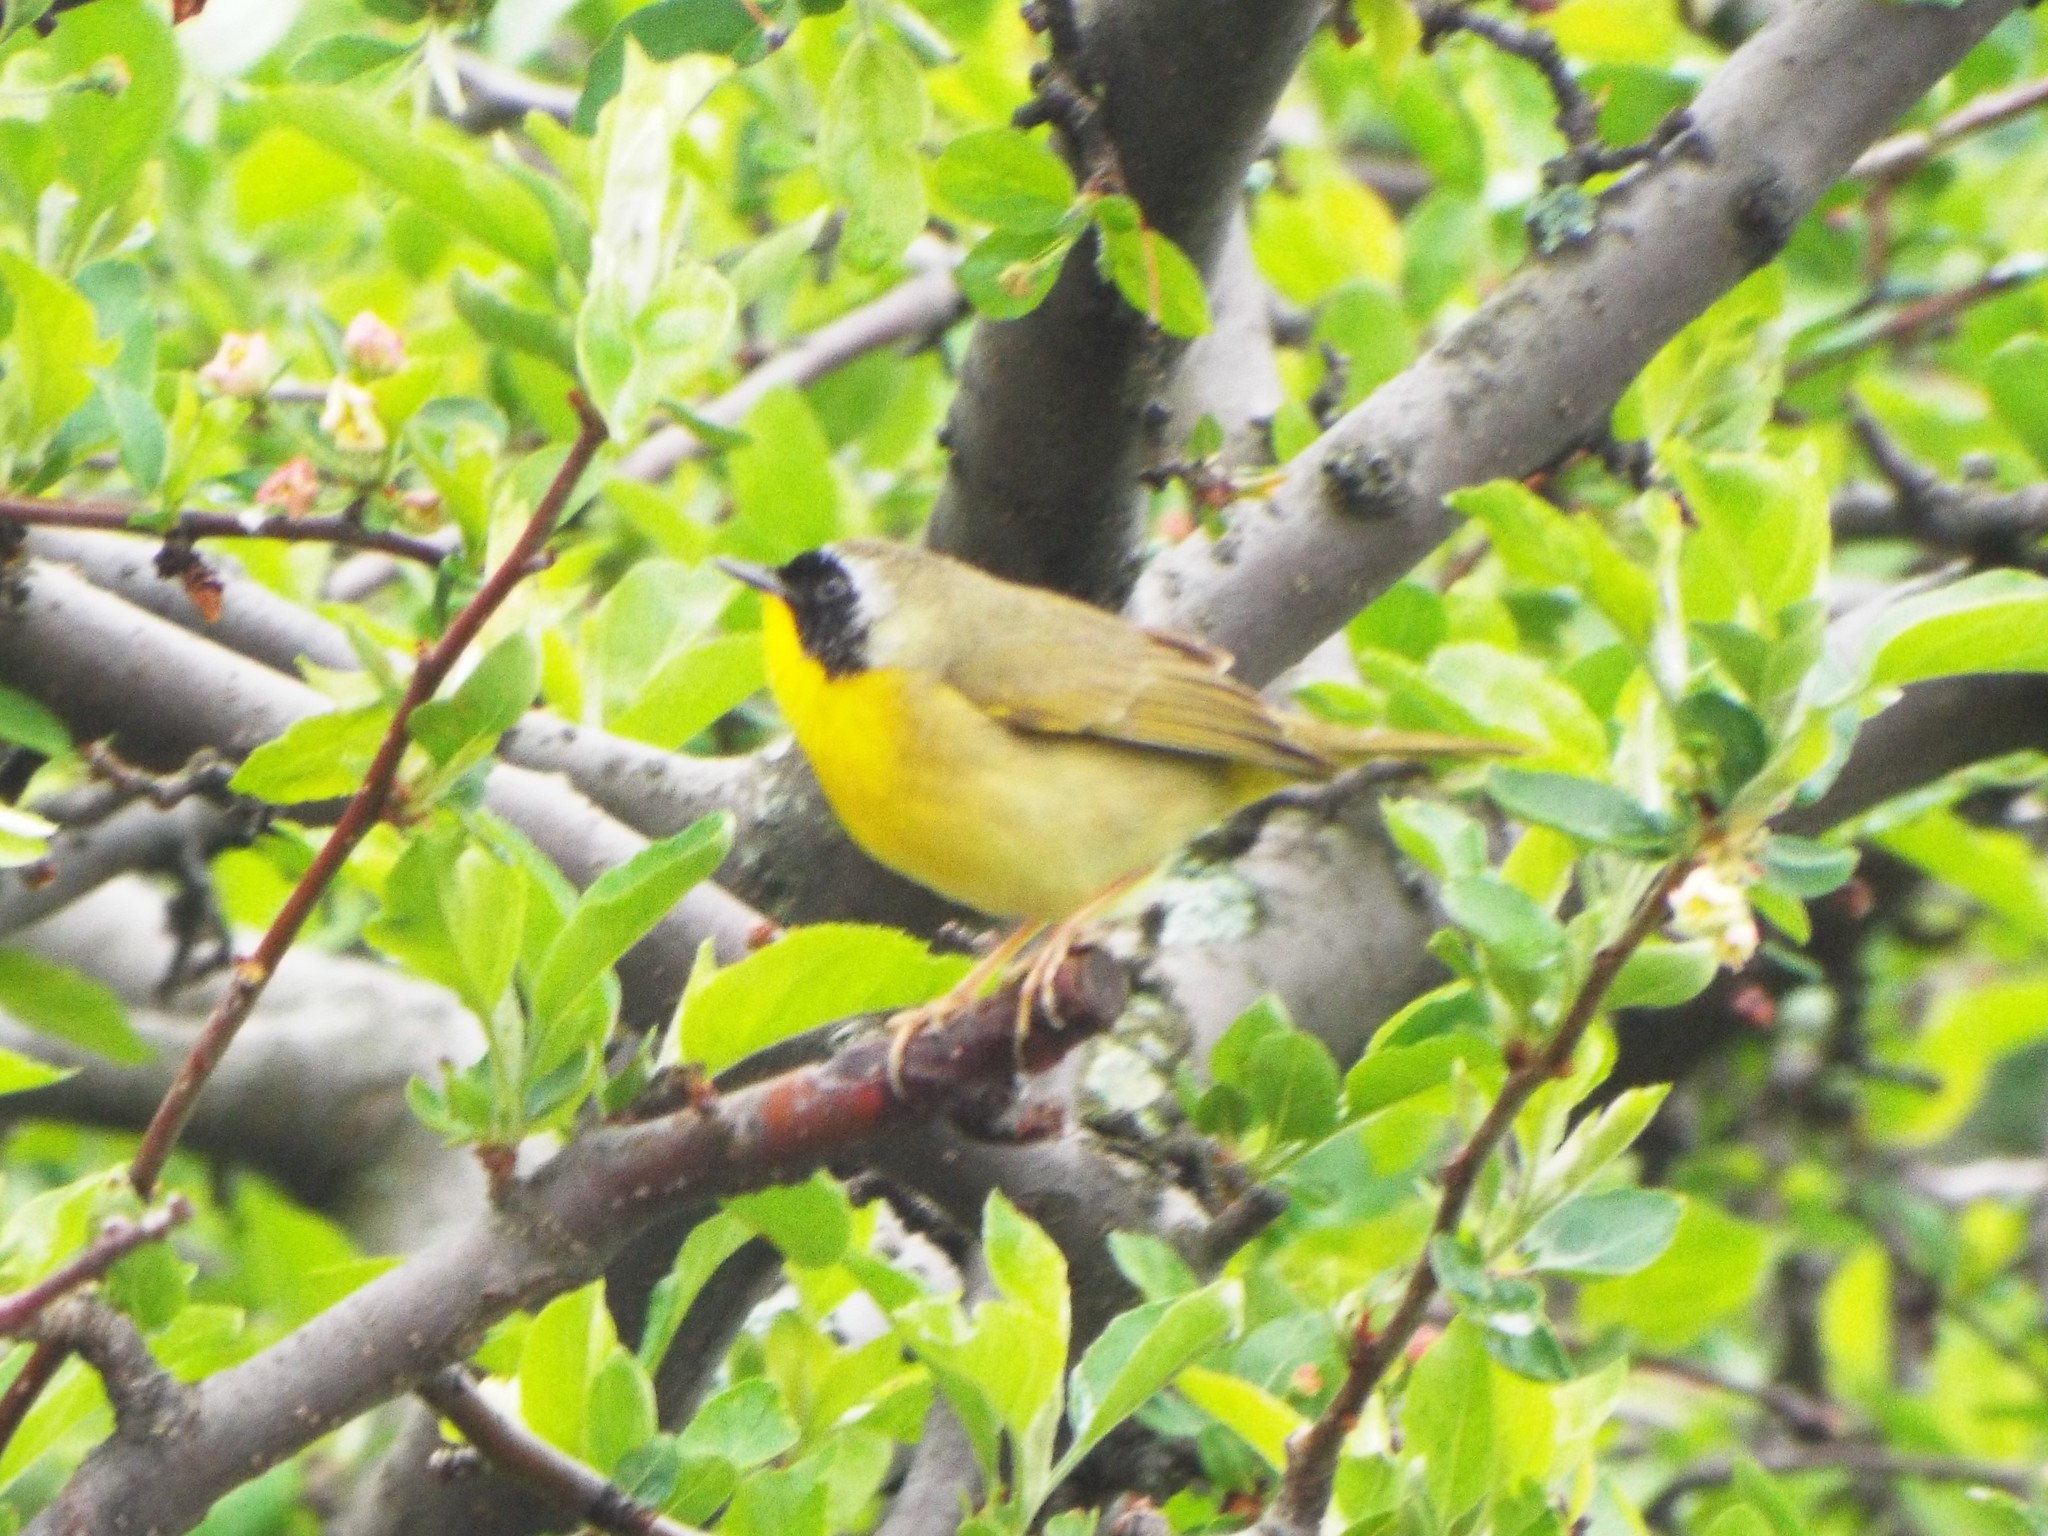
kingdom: Animalia
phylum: Chordata
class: Aves
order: Passeriformes
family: Parulidae
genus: Geothlypis
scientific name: Geothlypis trichas
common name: Common yellowthroat
